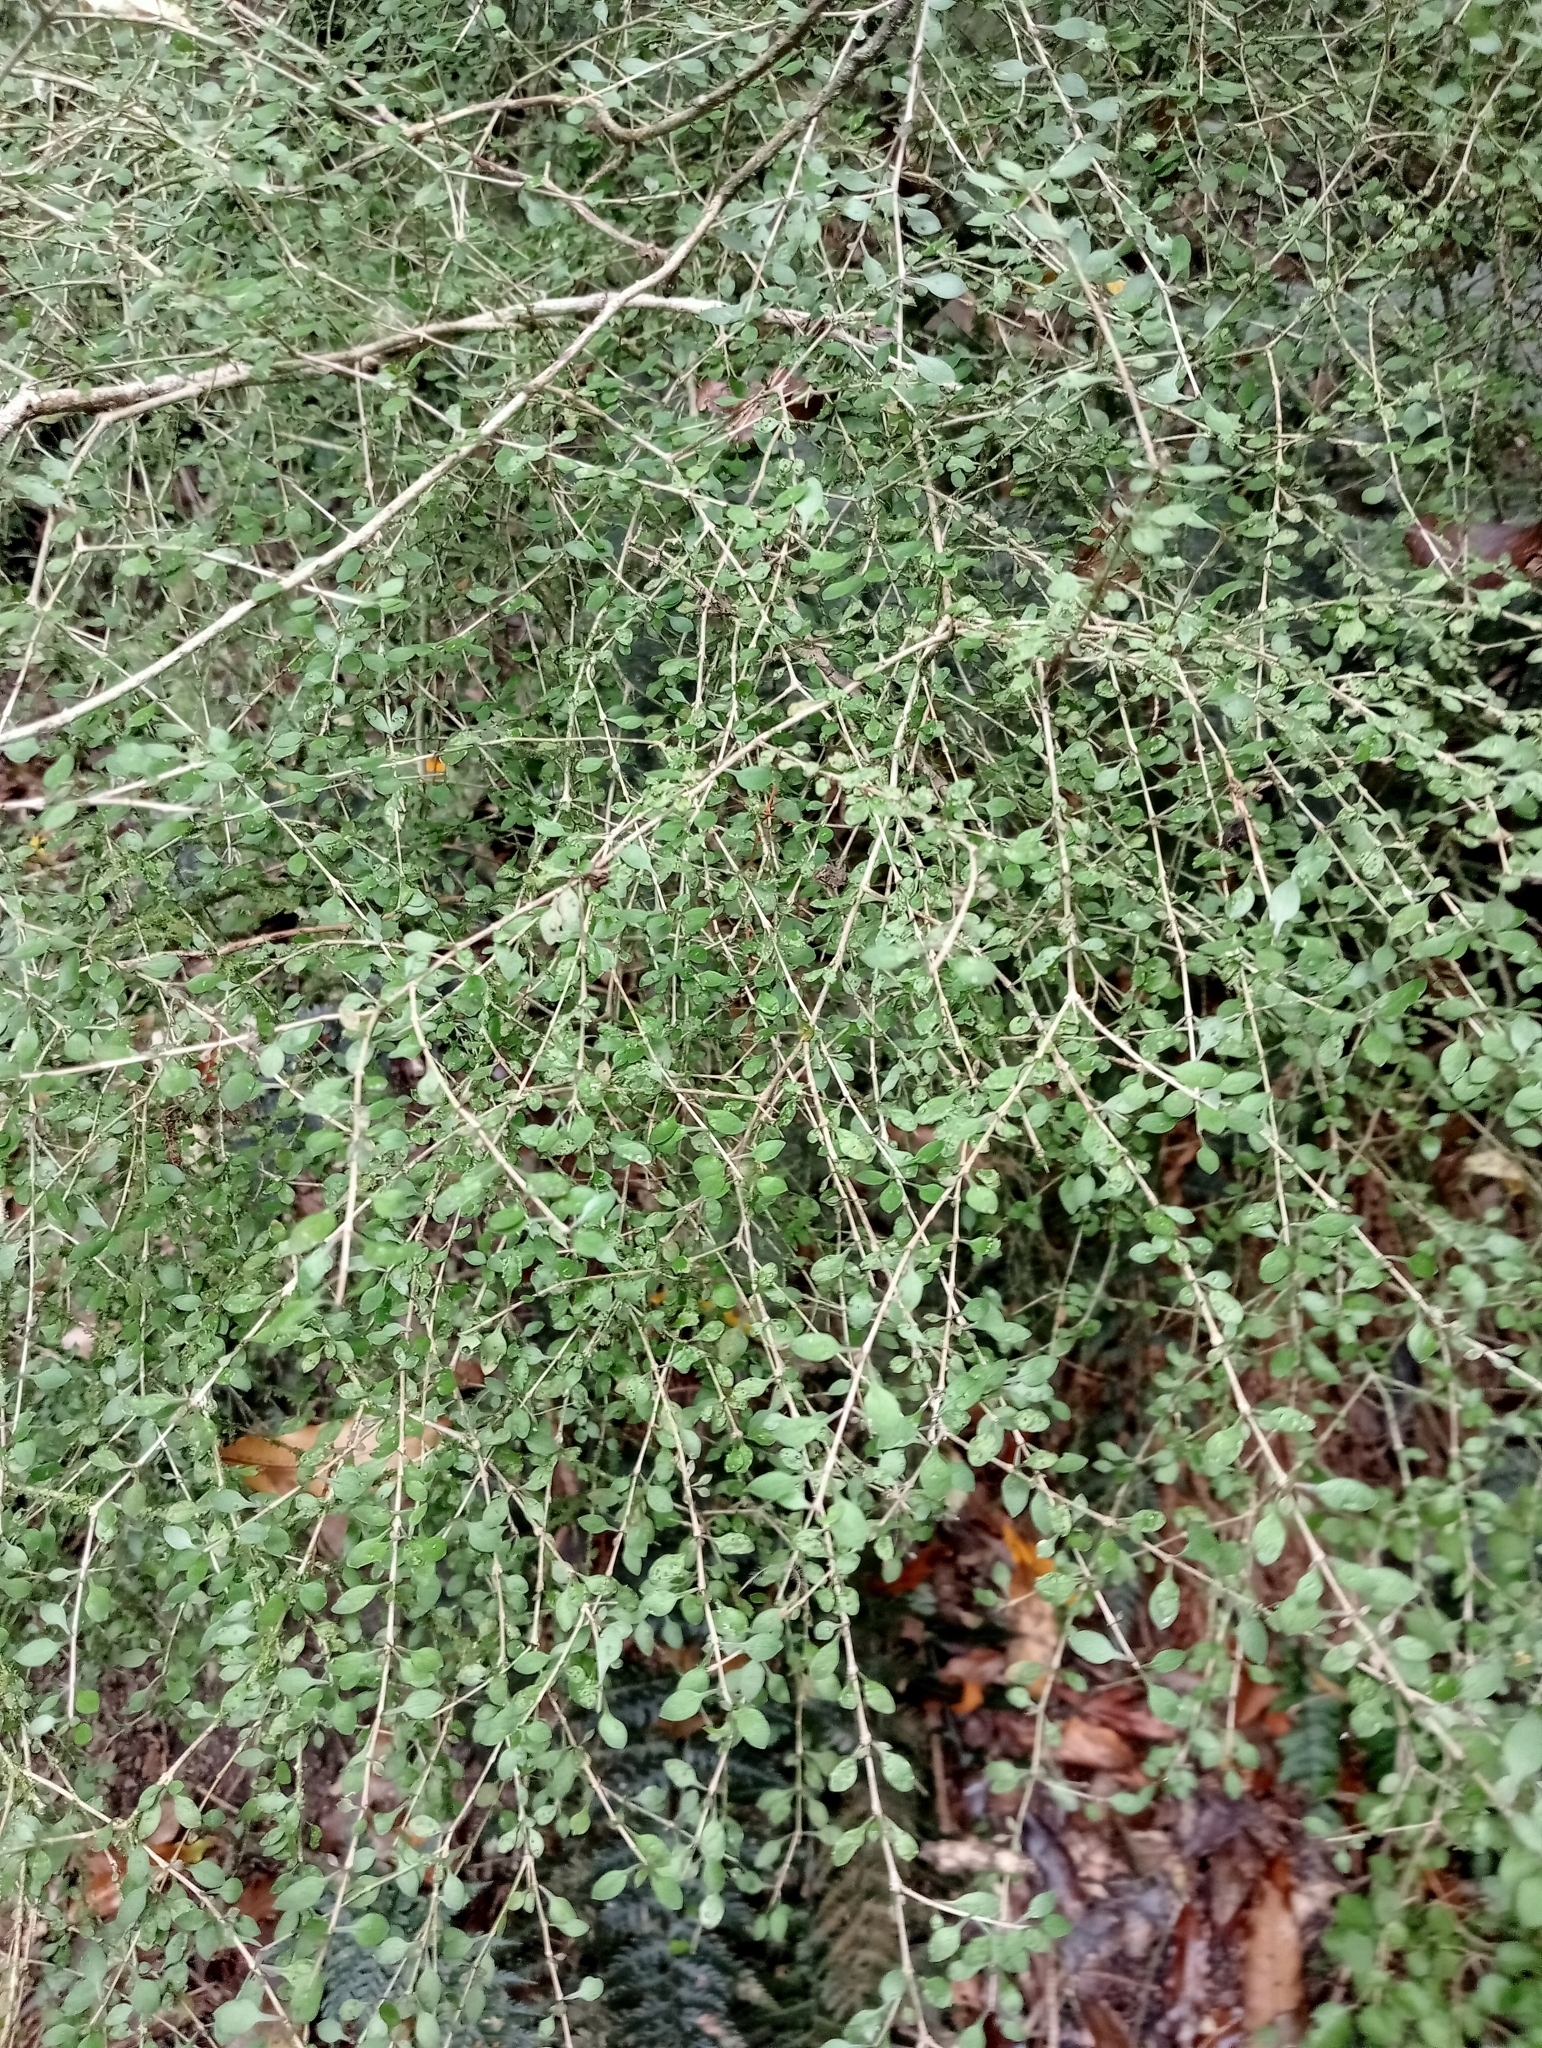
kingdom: Plantae
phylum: Tracheophyta
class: Magnoliopsida
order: Gentianales
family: Rubiaceae
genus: Coprosma
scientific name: Coprosma virescens
